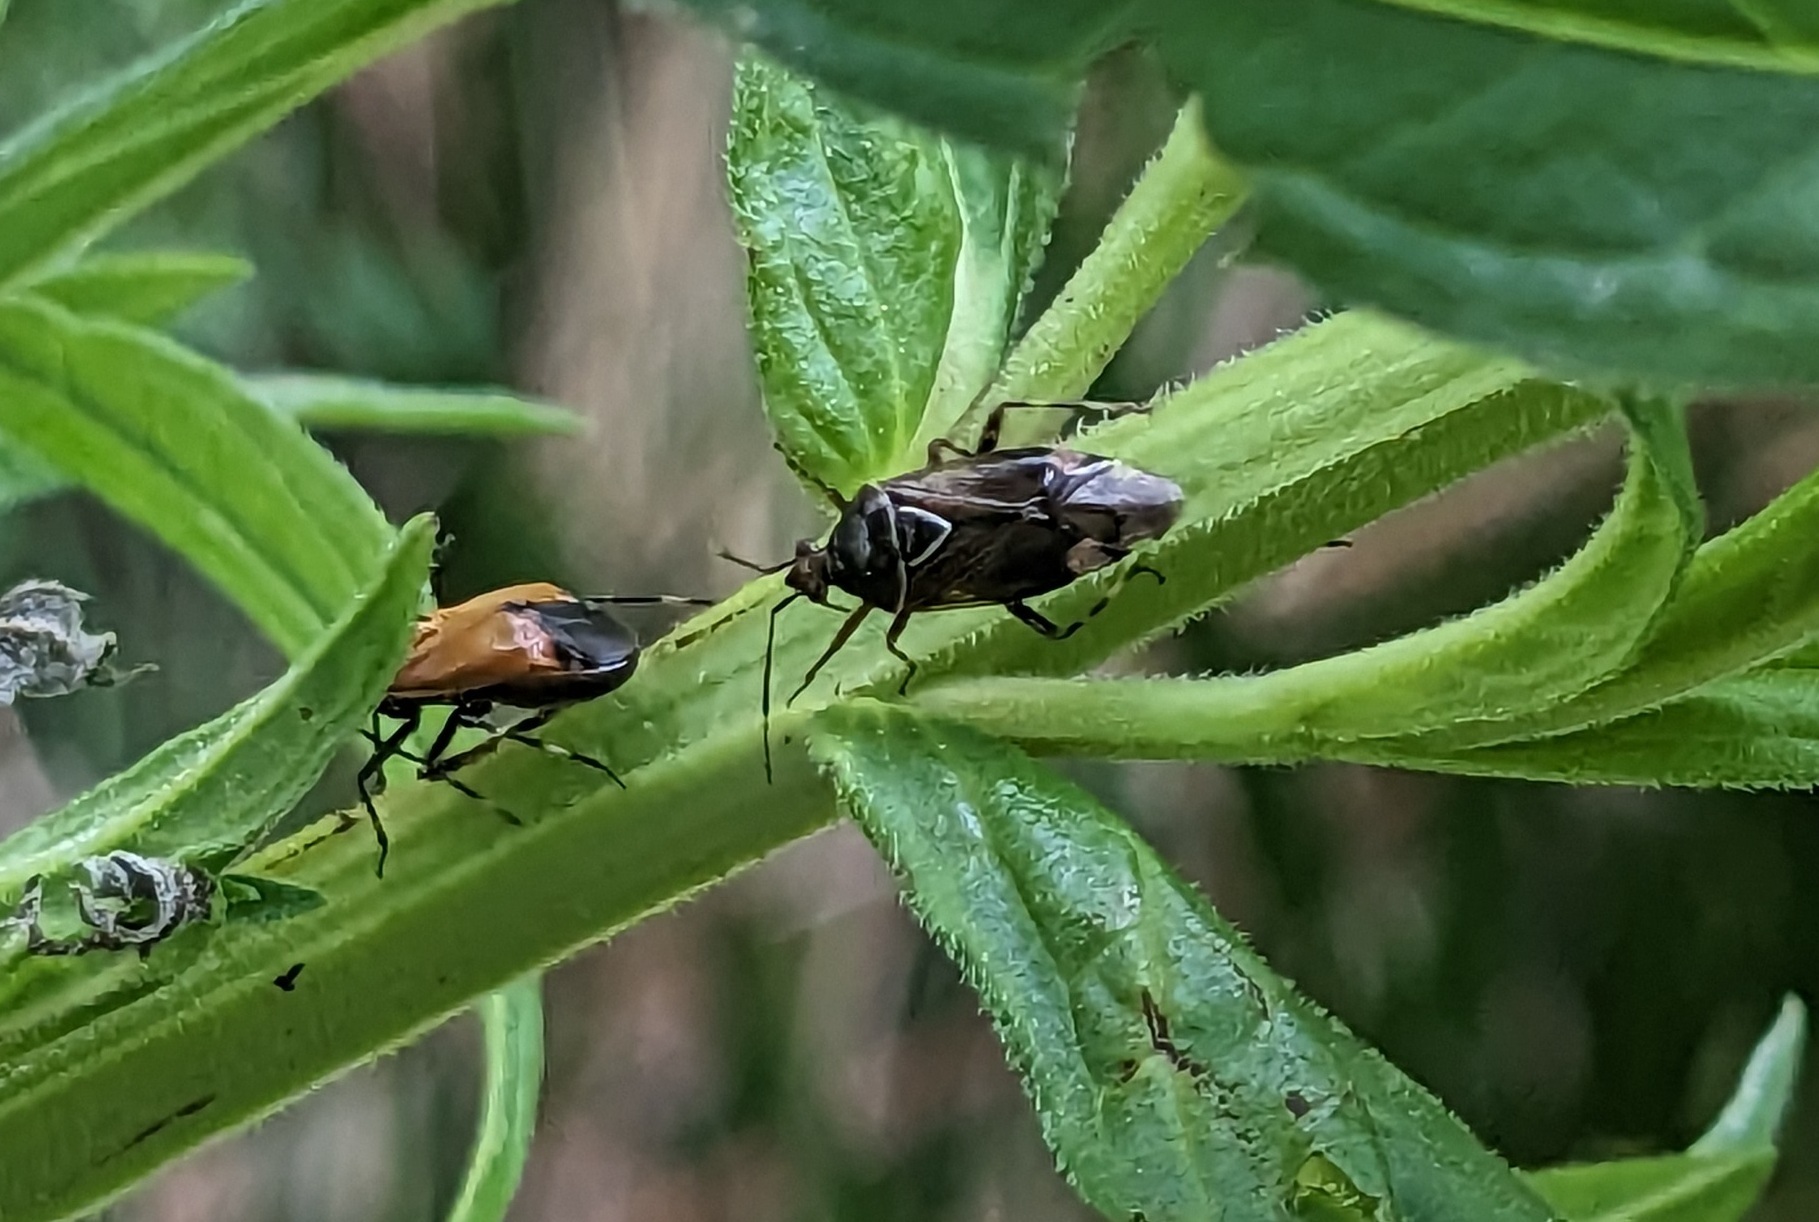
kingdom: Animalia
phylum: Arthropoda
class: Insecta
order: Hemiptera
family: Miridae
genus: Deraeocoris
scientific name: Deraeocoris flavilinea
